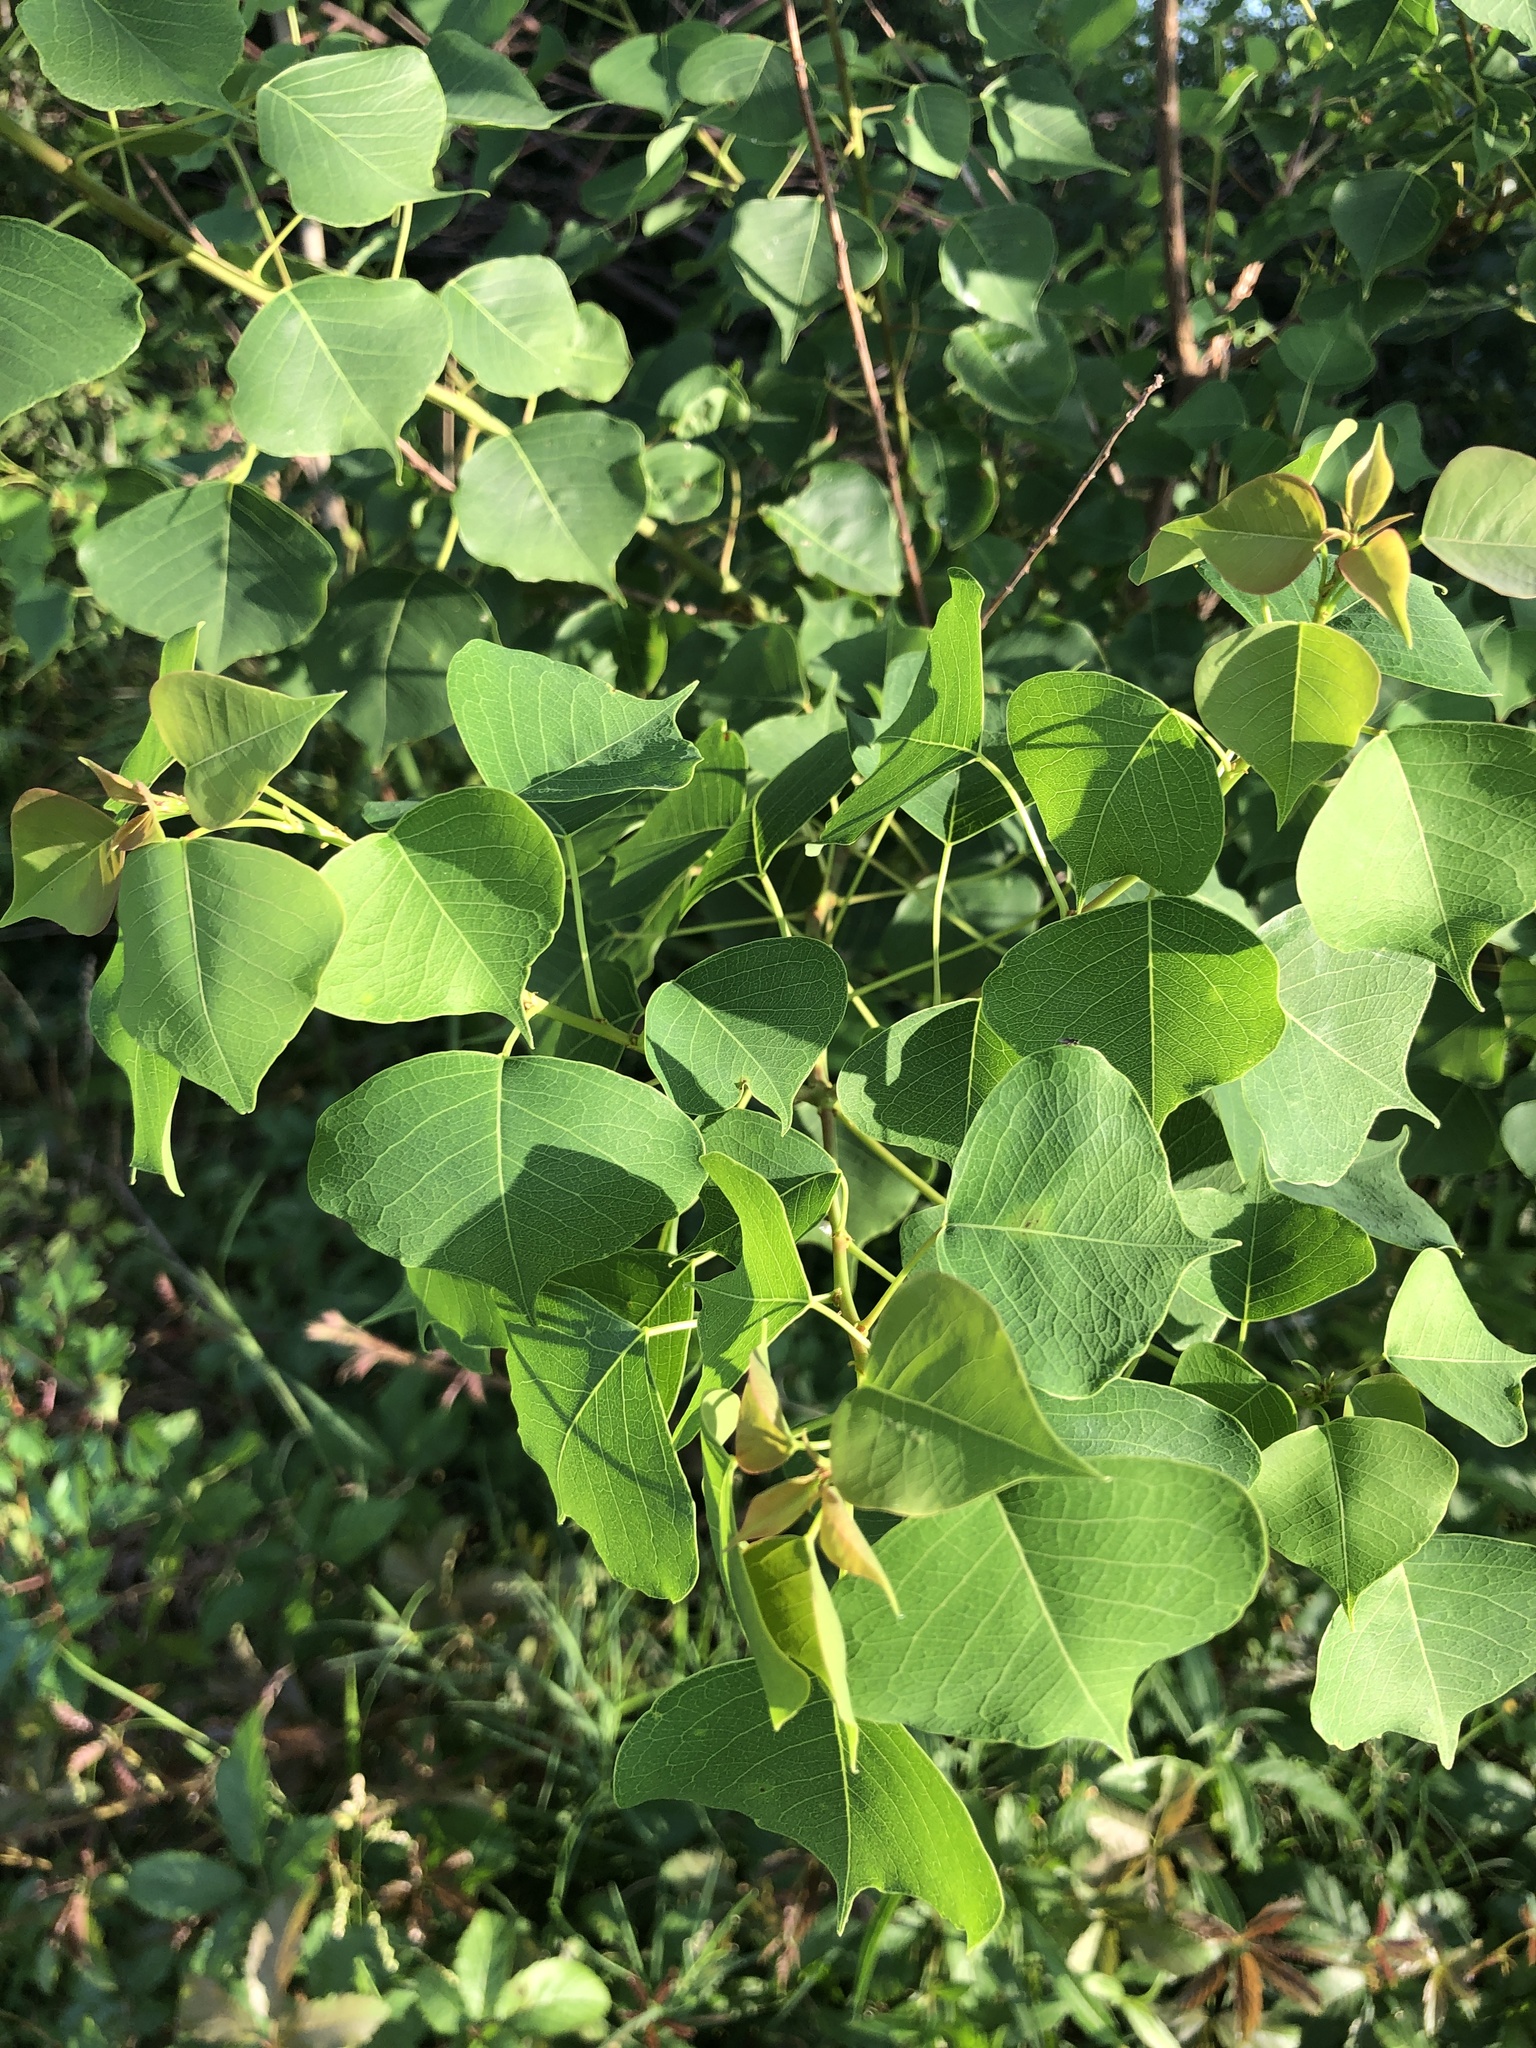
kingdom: Plantae
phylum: Tracheophyta
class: Magnoliopsida
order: Malpighiales
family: Euphorbiaceae
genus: Triadica
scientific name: Triadica sebifera
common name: Chinese tallow
